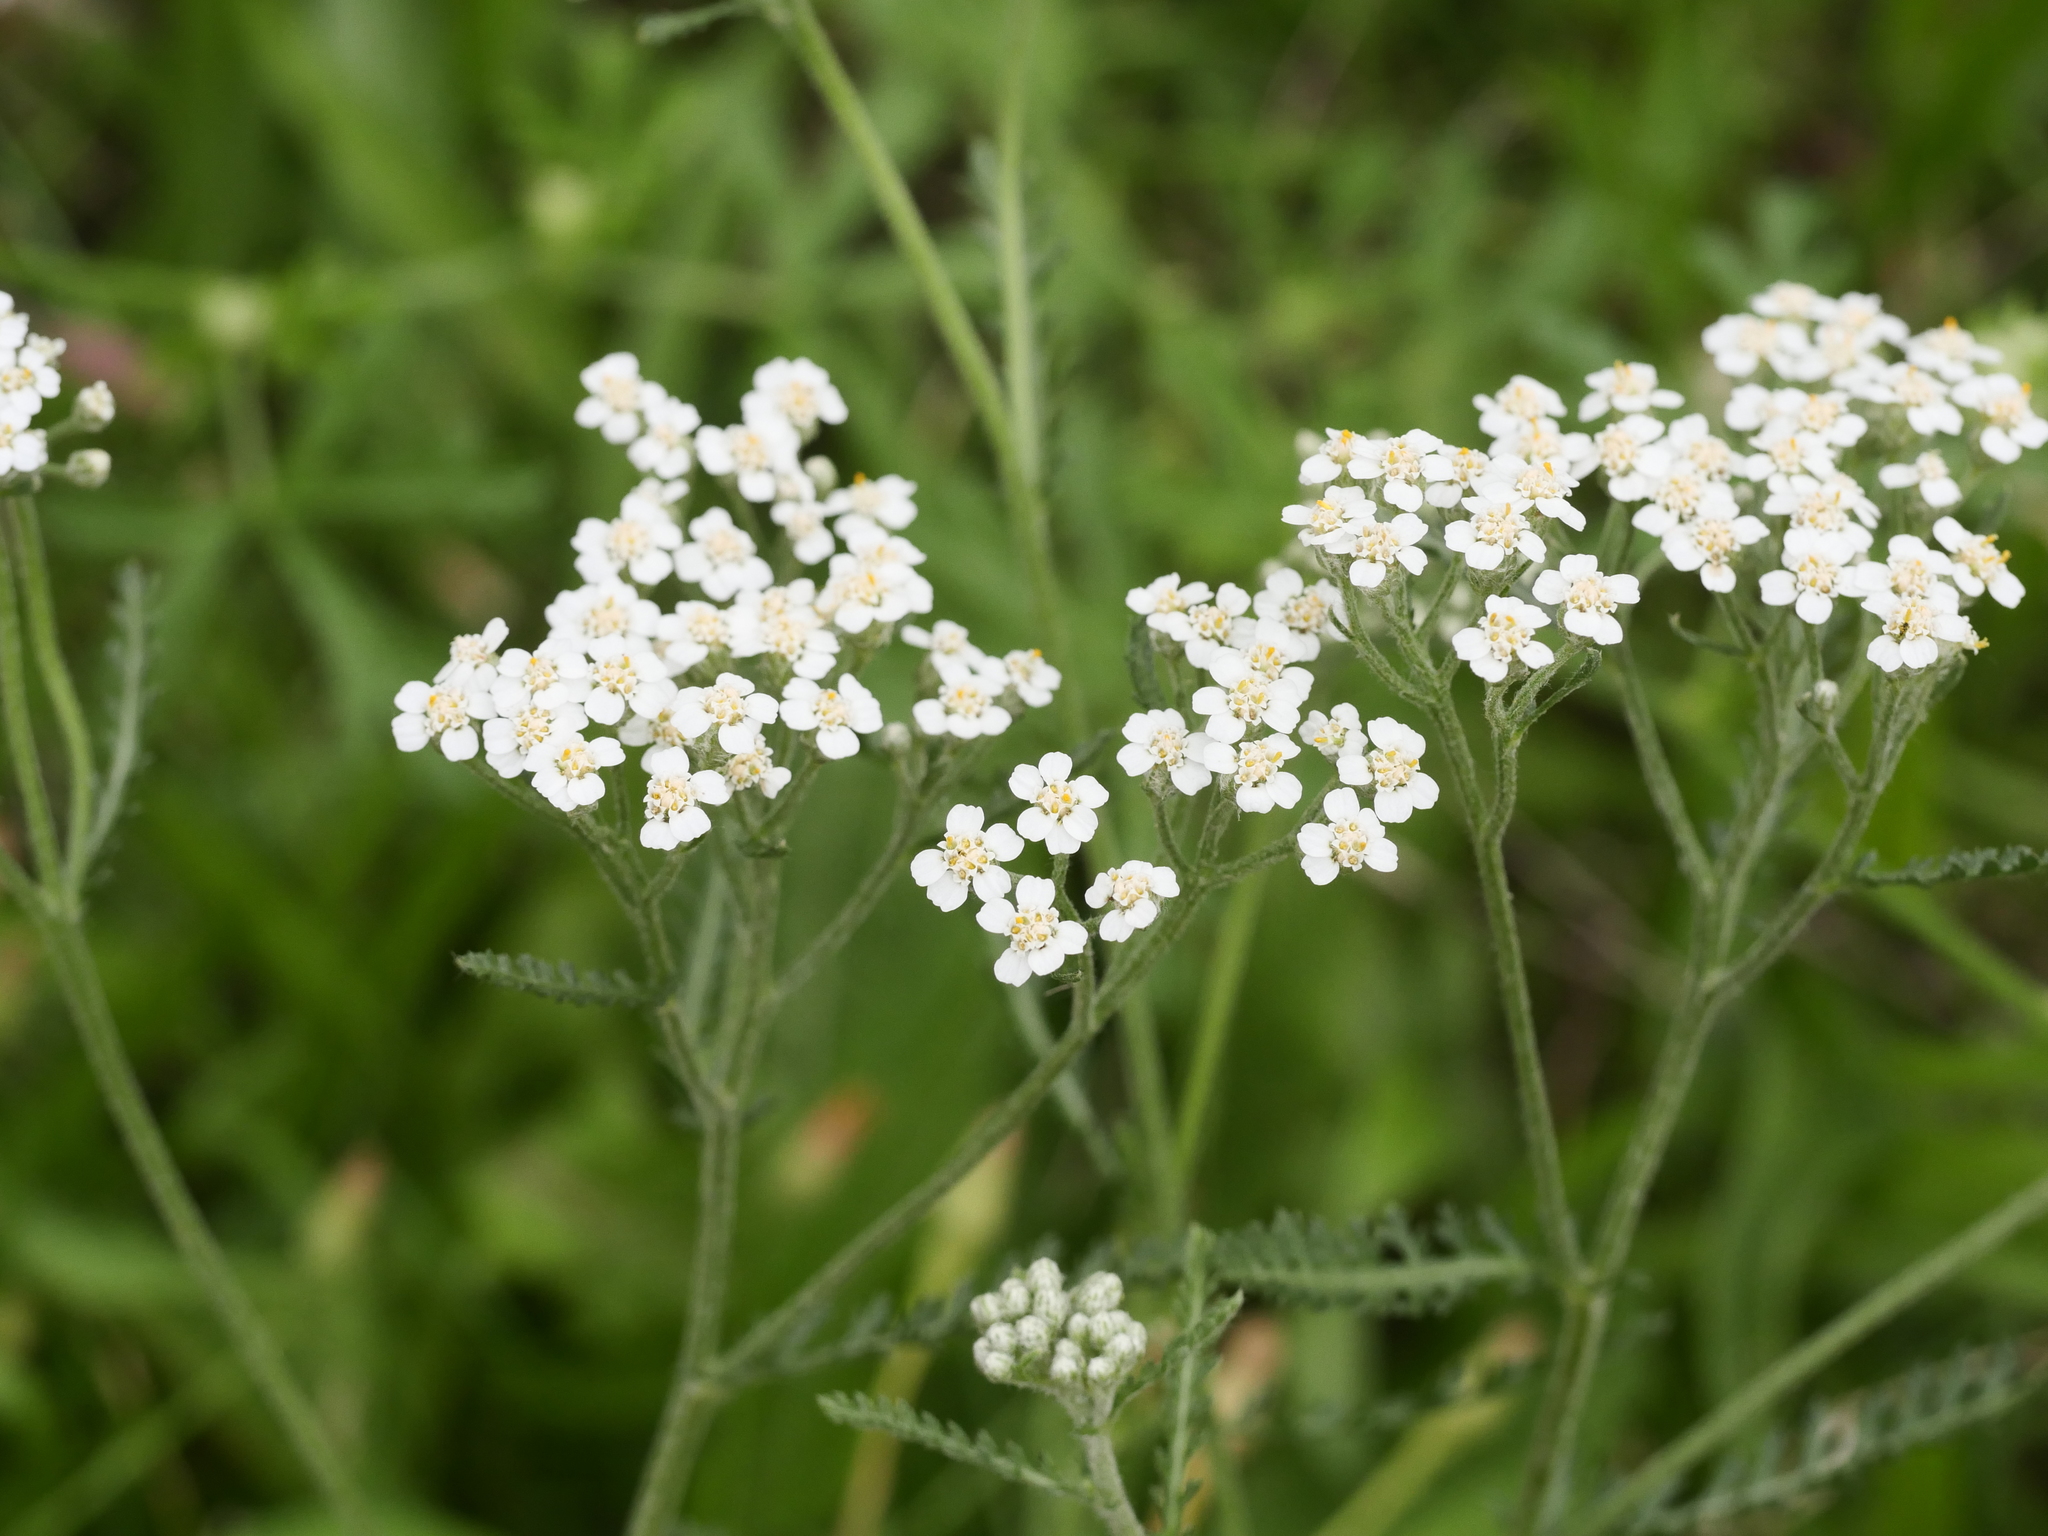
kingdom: Plantae
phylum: Tracheophyta
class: Magnoliopsida
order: Asterales
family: Asteraceae
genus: Achillea
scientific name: Achillea millefolium
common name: Yarrow
